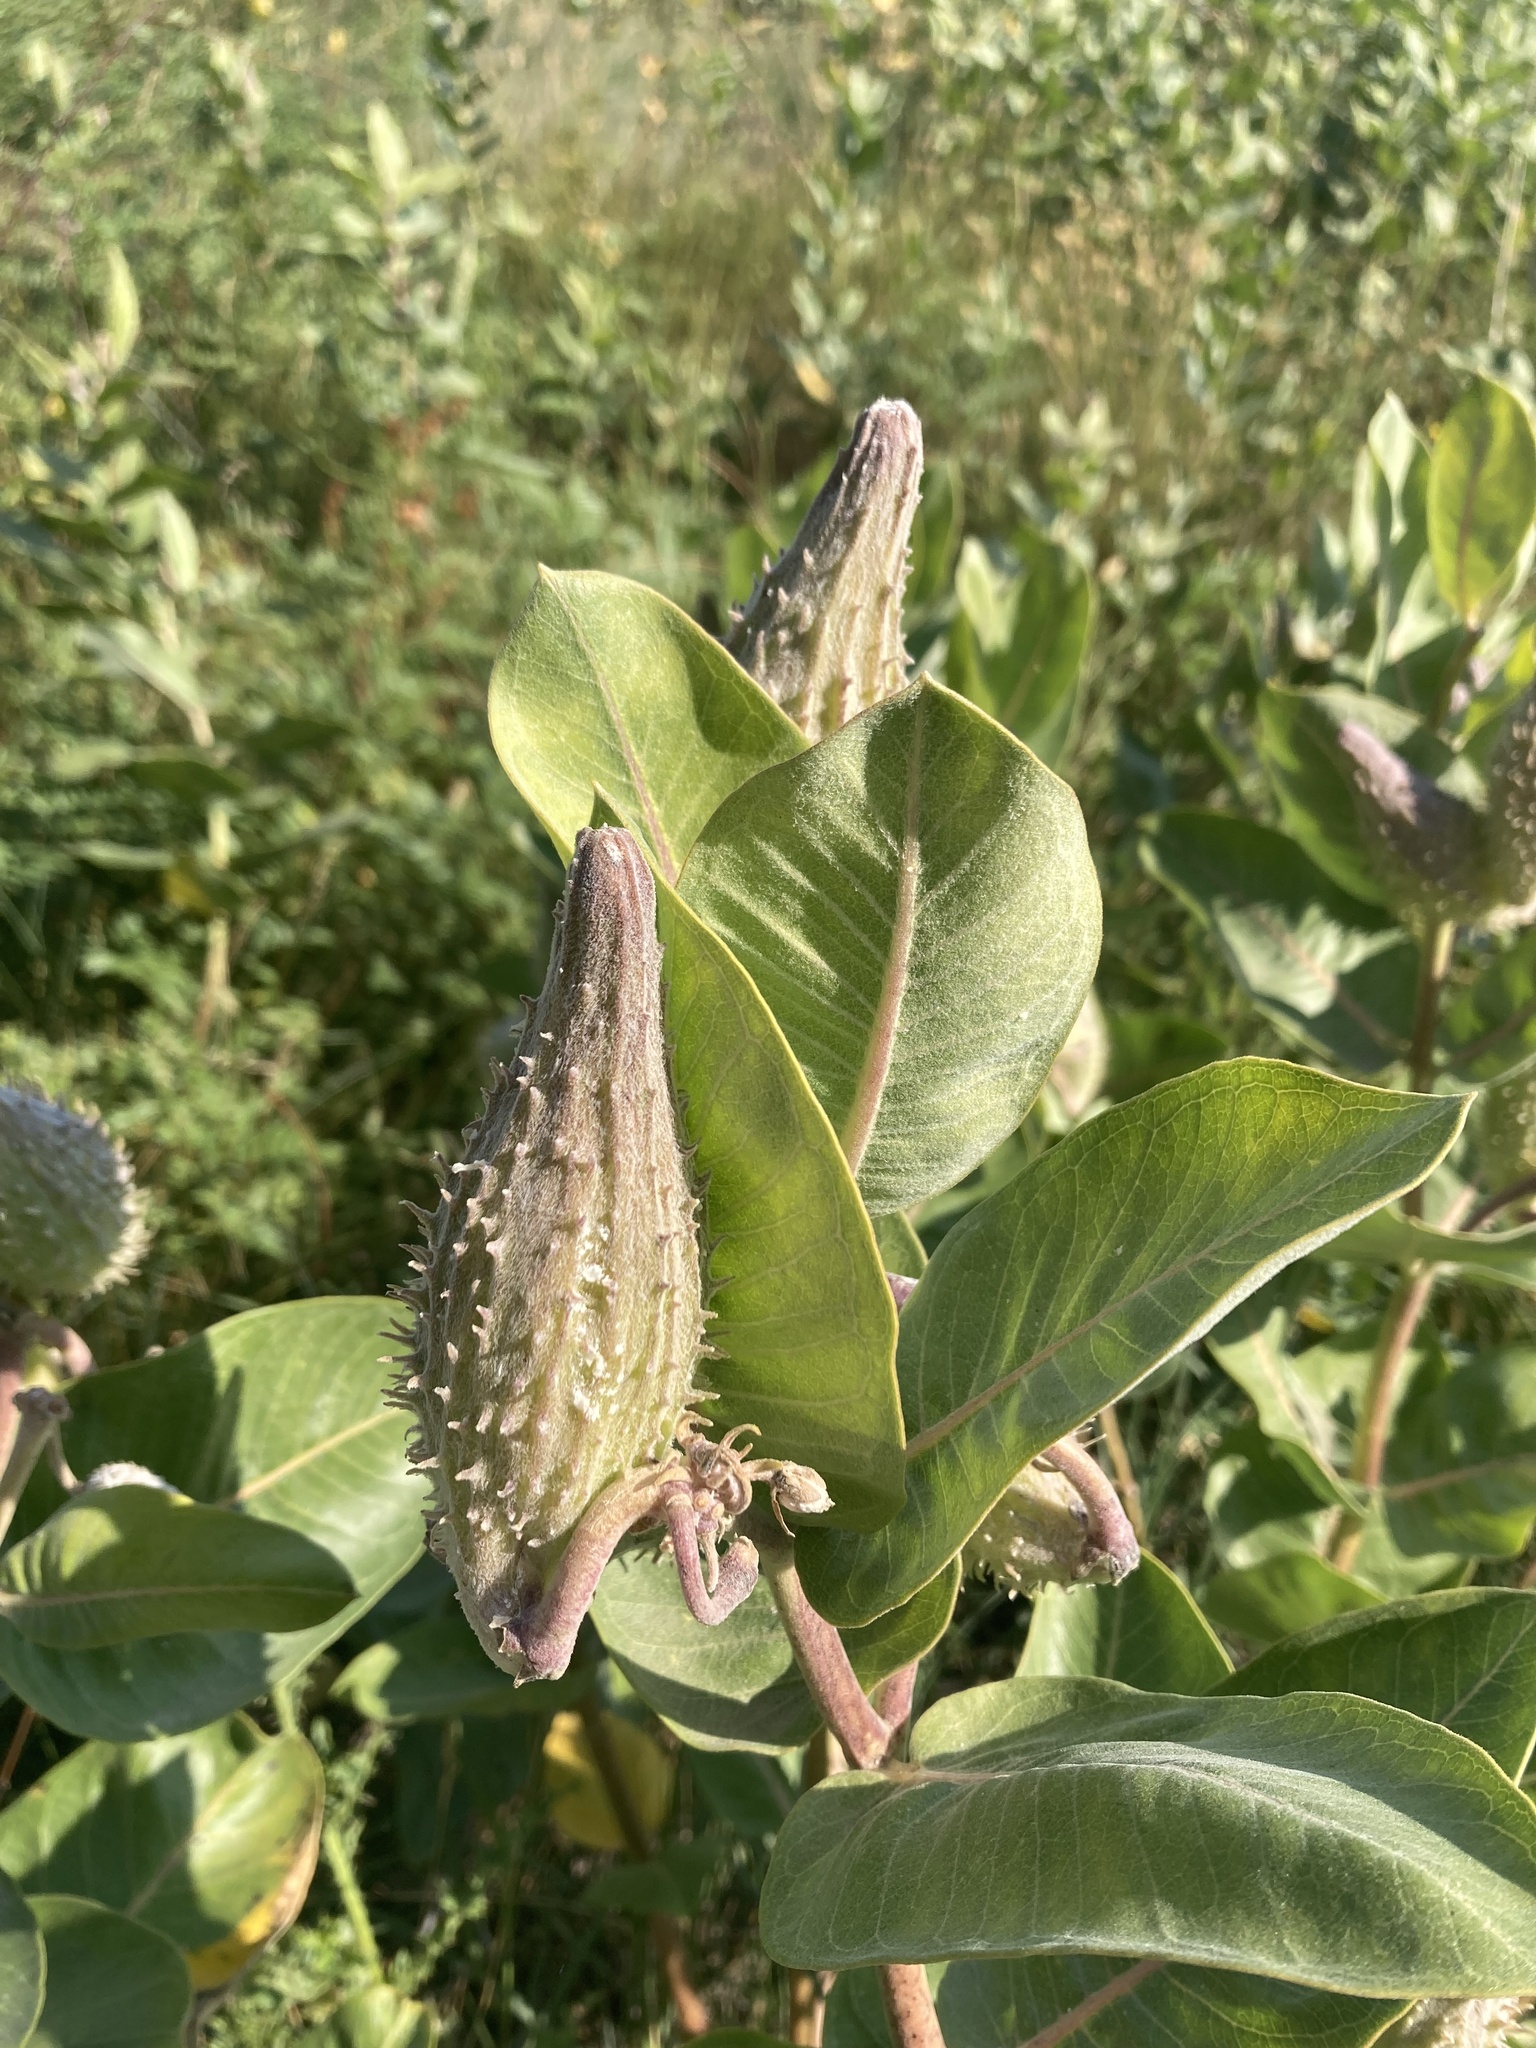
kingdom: Plantae
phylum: Tracheophyta
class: Magnoliopsida
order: Gentianales
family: Apocynaceae
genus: Asclepias
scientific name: Asclepias speciosa
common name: Showy milkweed
